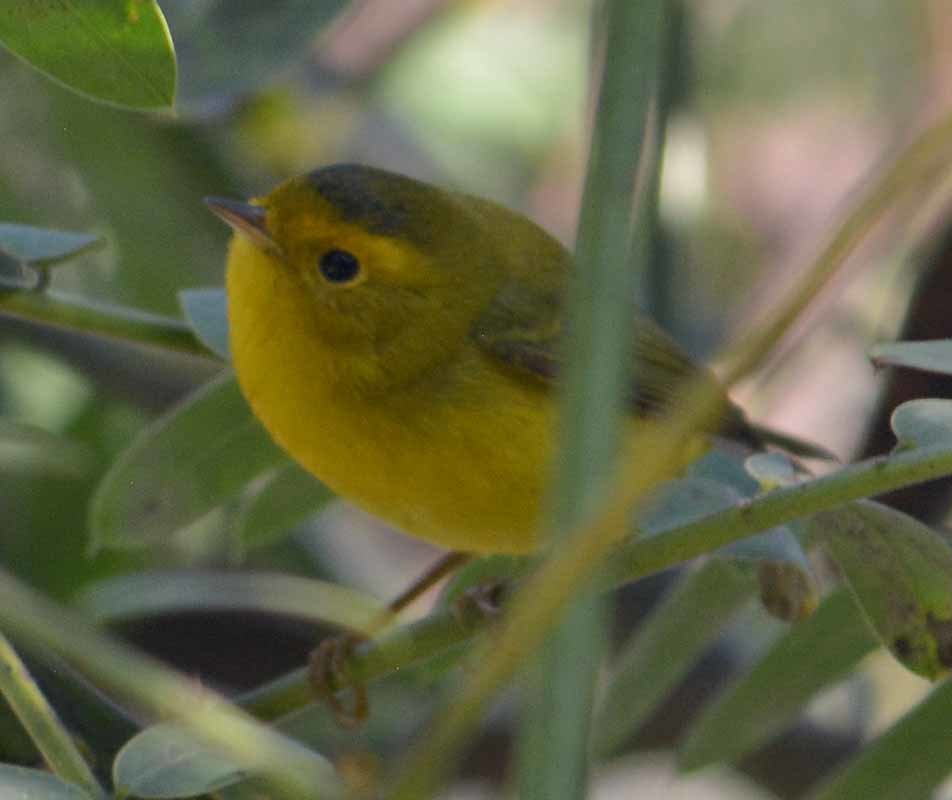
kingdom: Animalia
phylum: Chordata
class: Aves
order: Passeriformes
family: Parulidae
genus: Cardellina
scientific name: Cardellina pusilla
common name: Wilson's warbler
